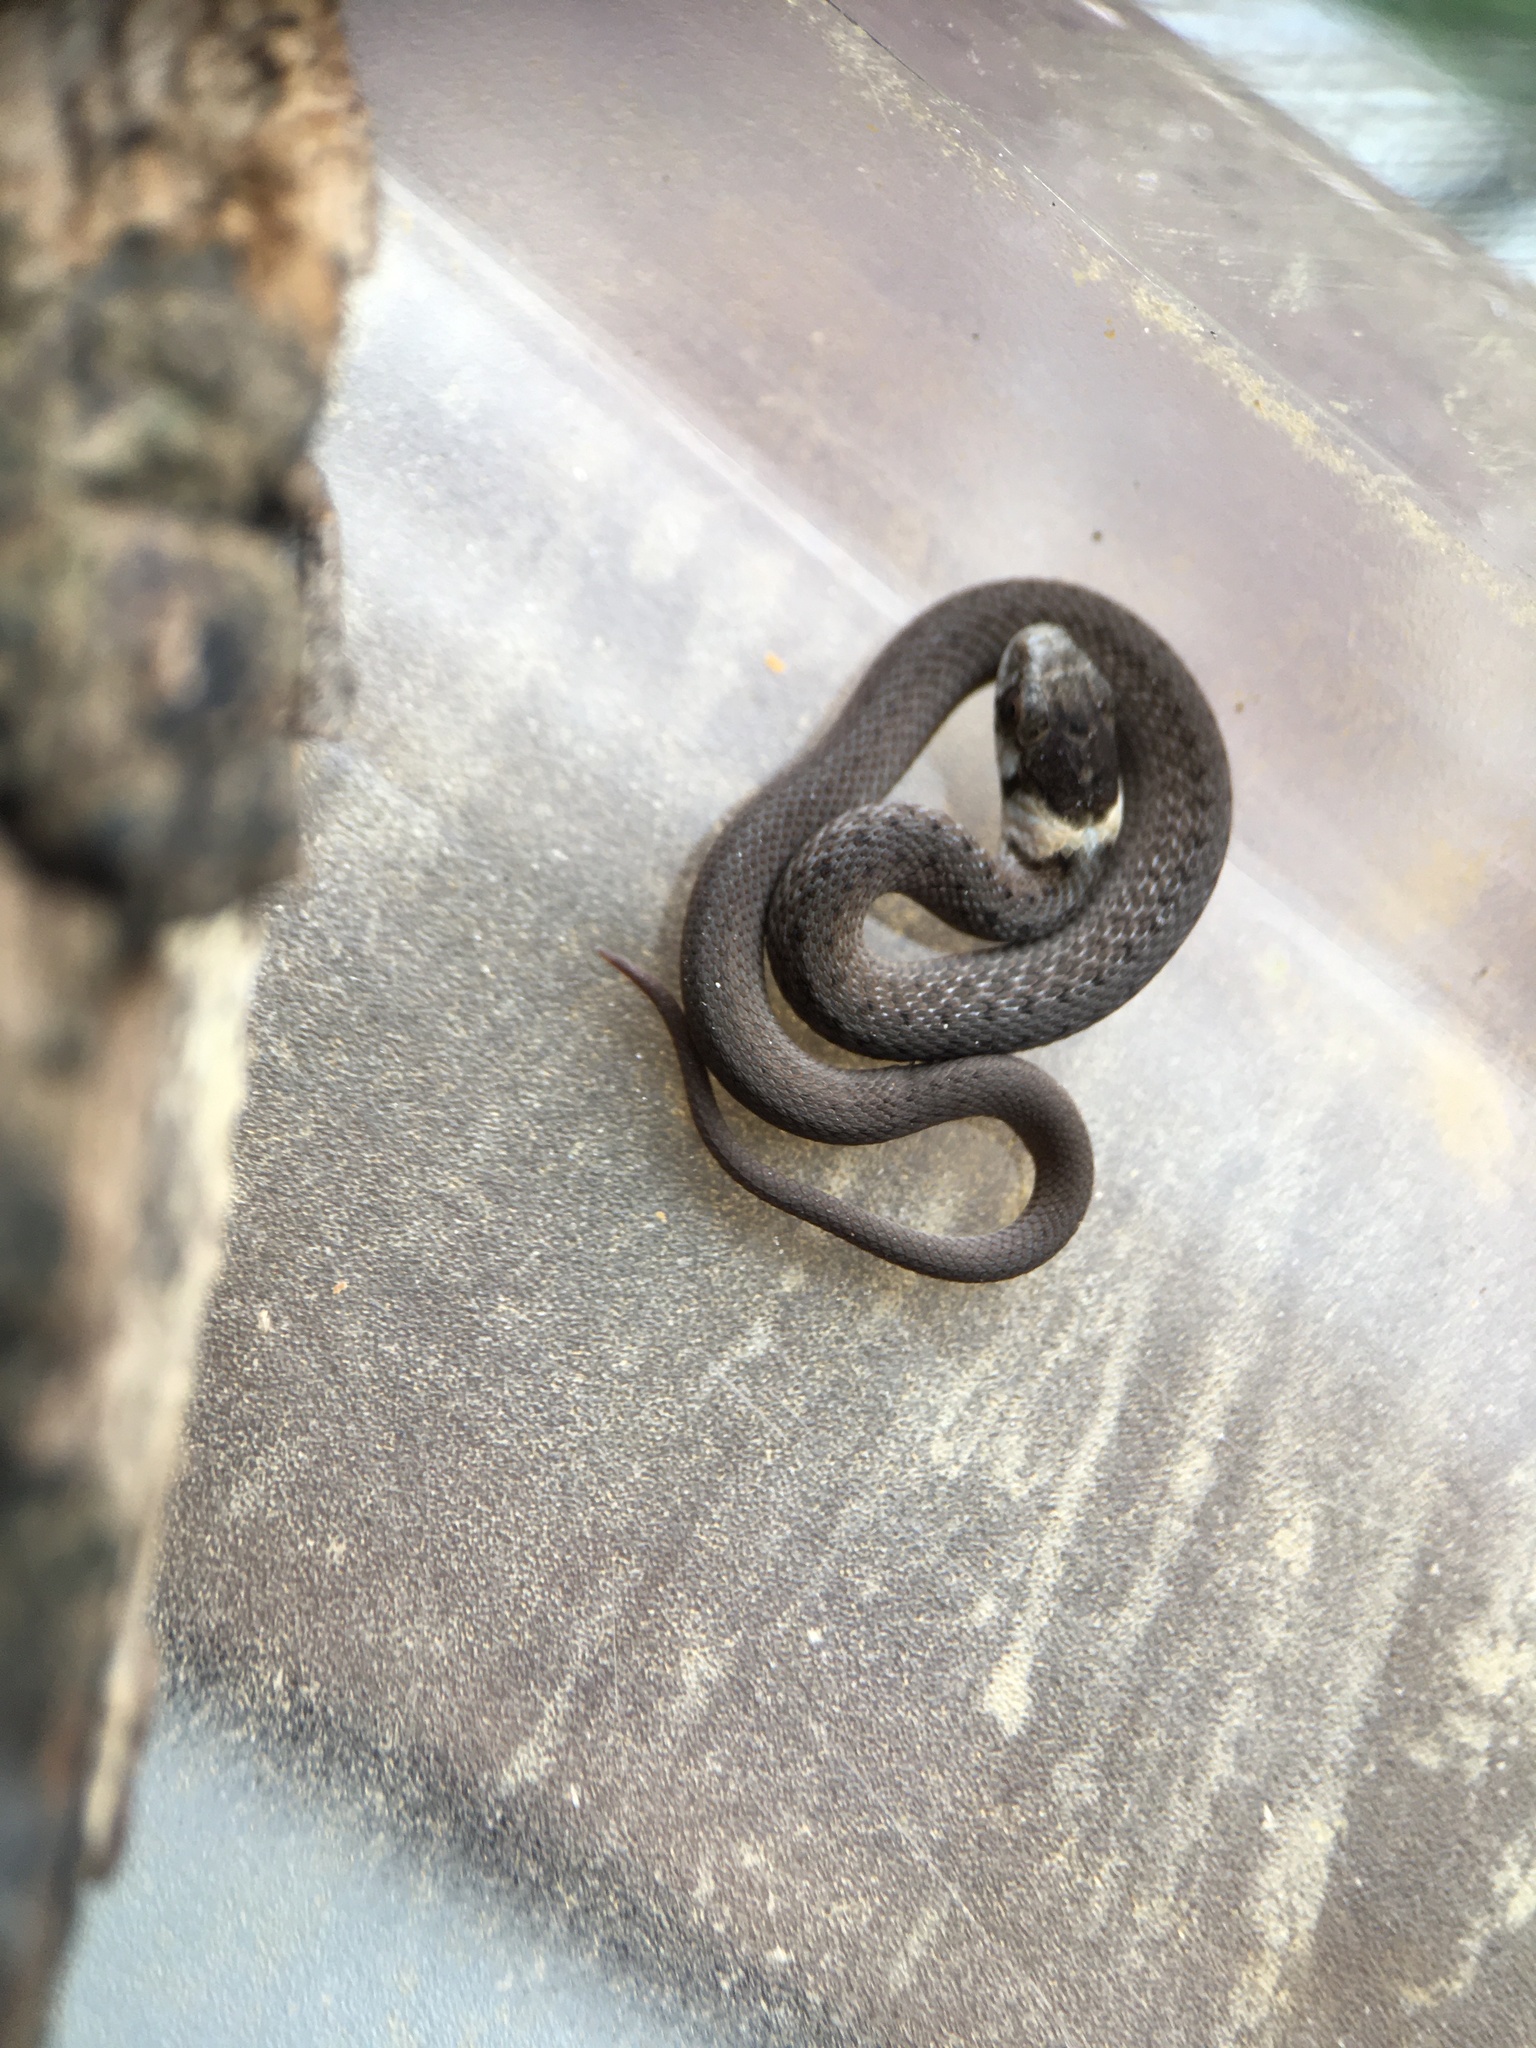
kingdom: Animalia
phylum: Chordata
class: Squamata
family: Colubridae
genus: Storeria
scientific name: Storeria dekayi
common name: (dekay’s) brown snake
